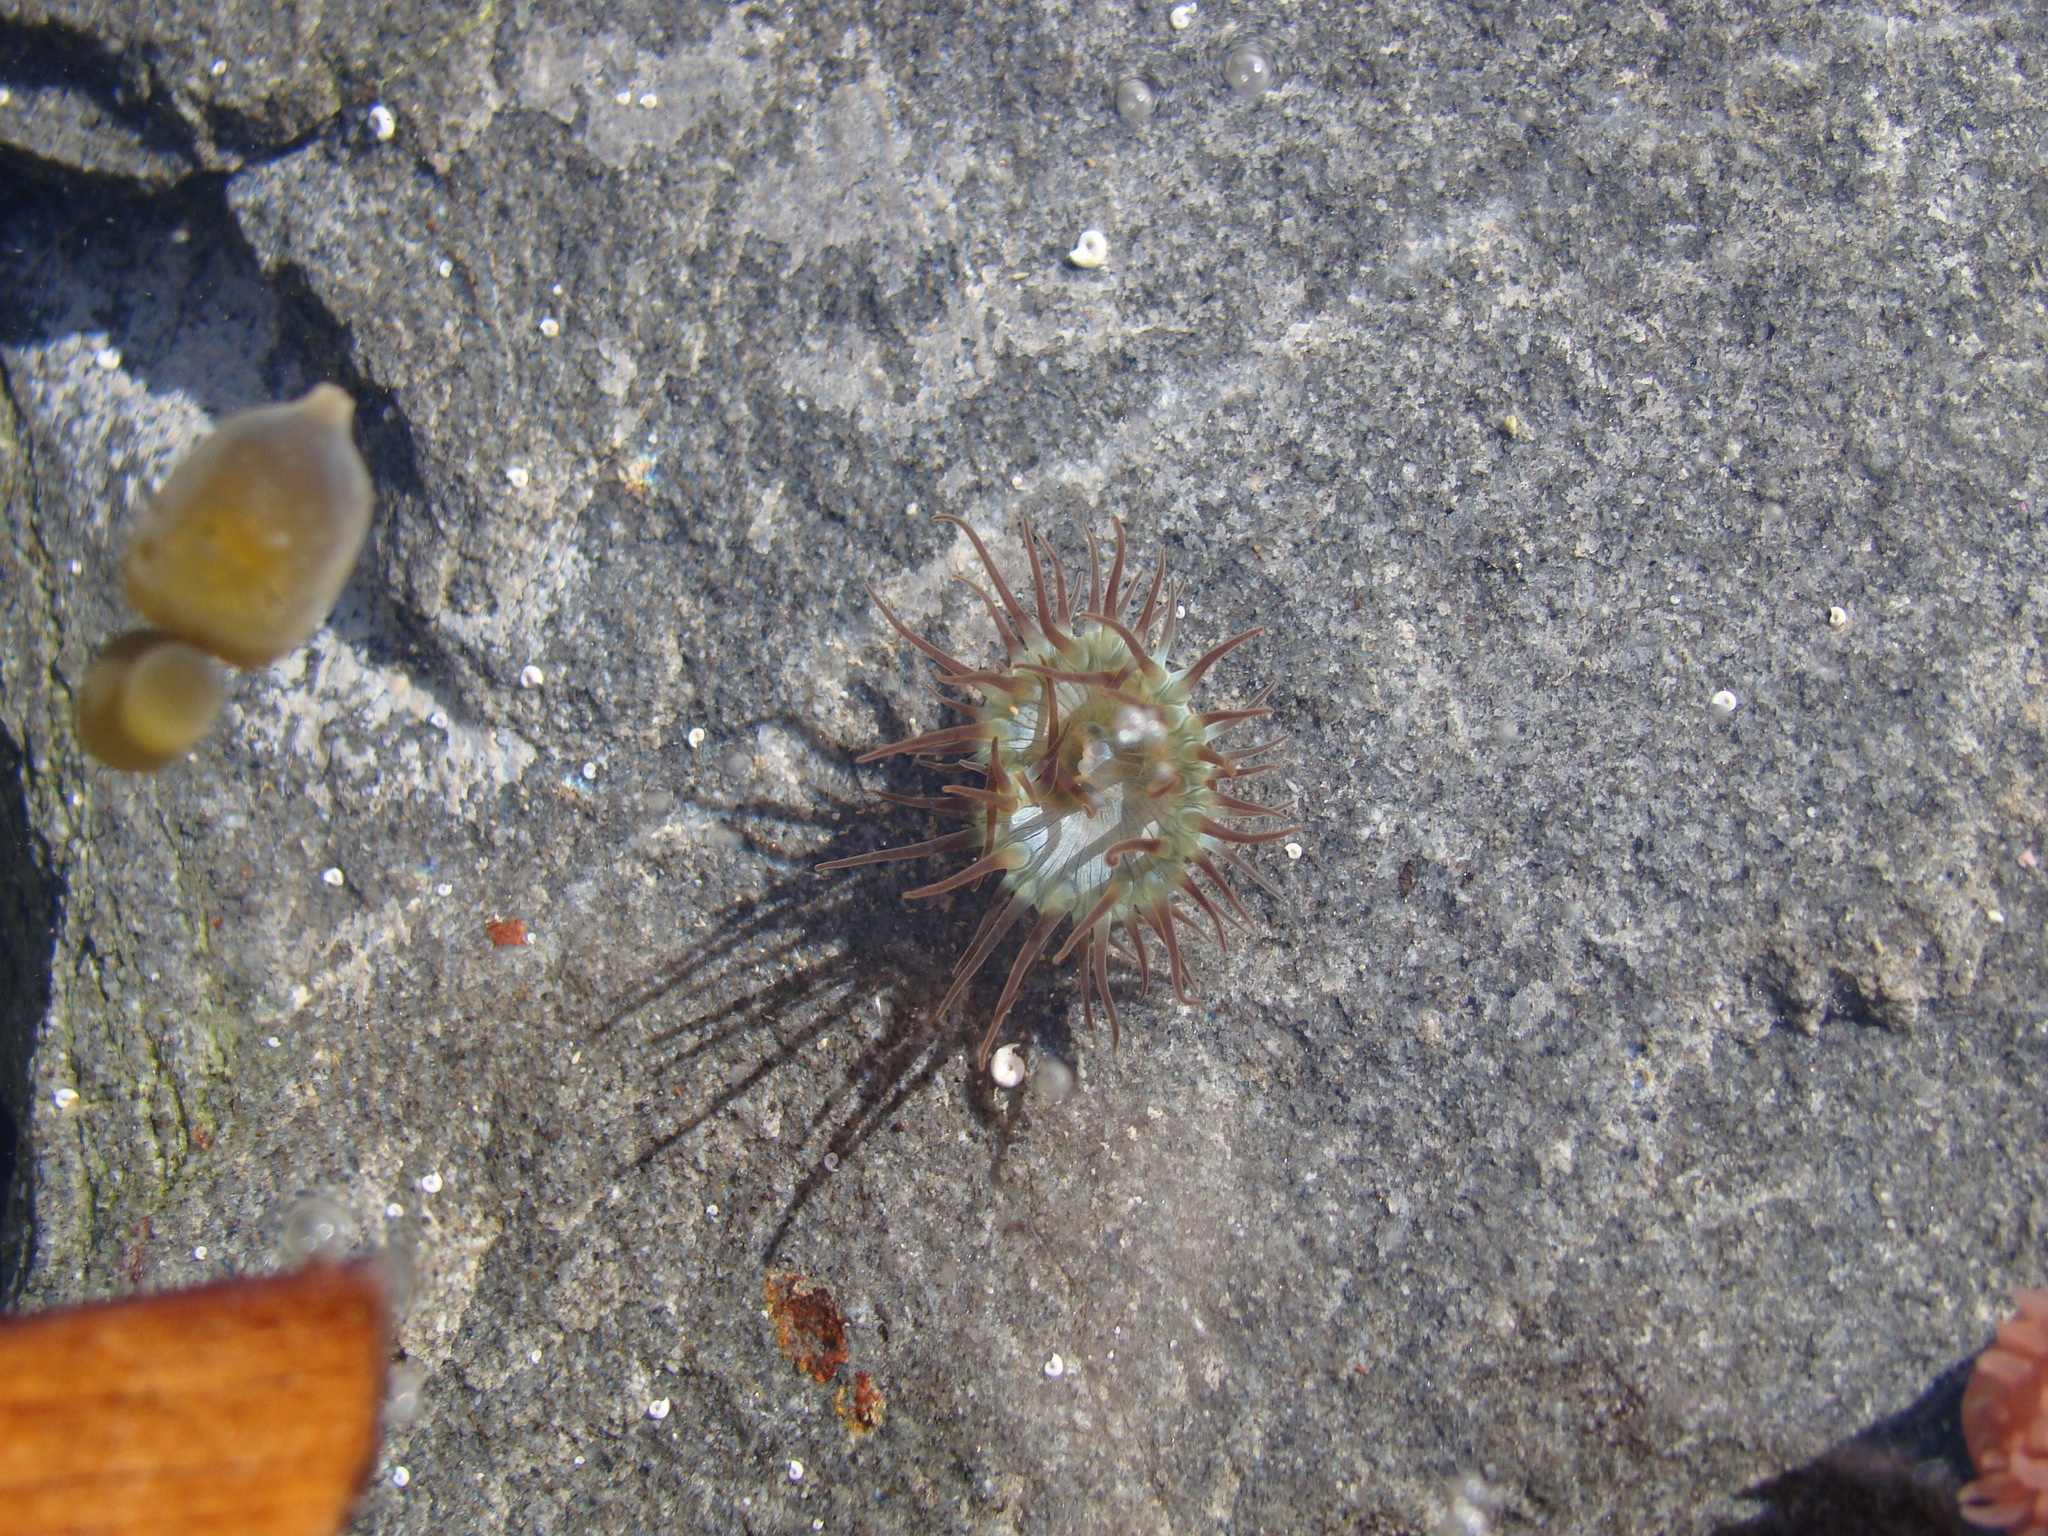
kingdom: Animalia
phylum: Cnidaria
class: Anthozoa
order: Actiniaria
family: Hormathiidae
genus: Handactis
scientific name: Handactis nutrix
